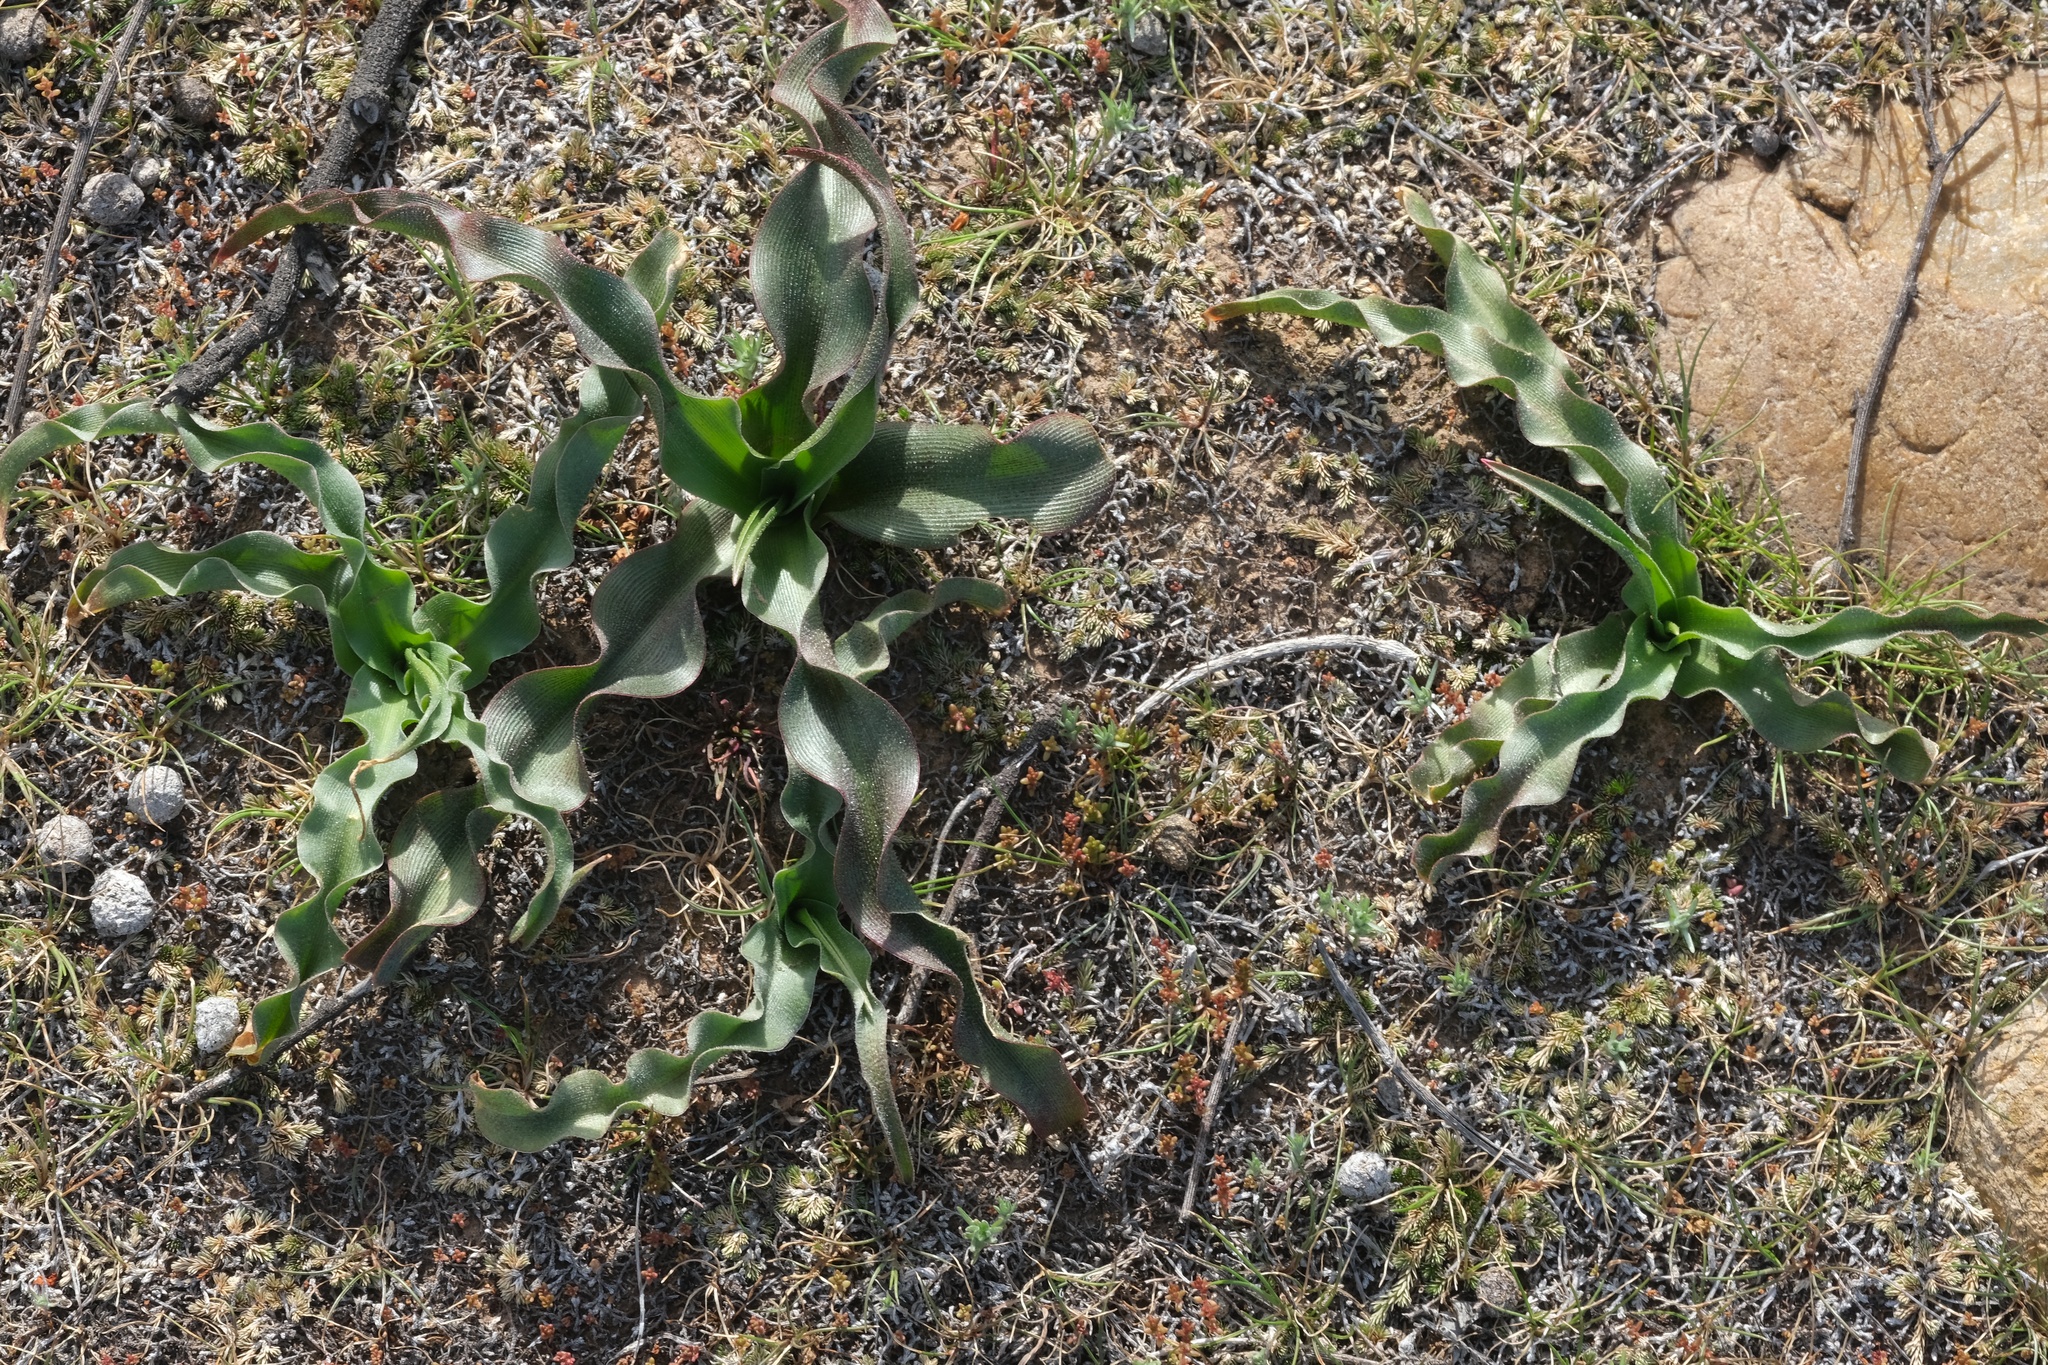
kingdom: Plantae
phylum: Tracheophyta
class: Liliopsida
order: Asparagales
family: Asparagaceae
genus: Hooveria
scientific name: Hooveria parviflora
